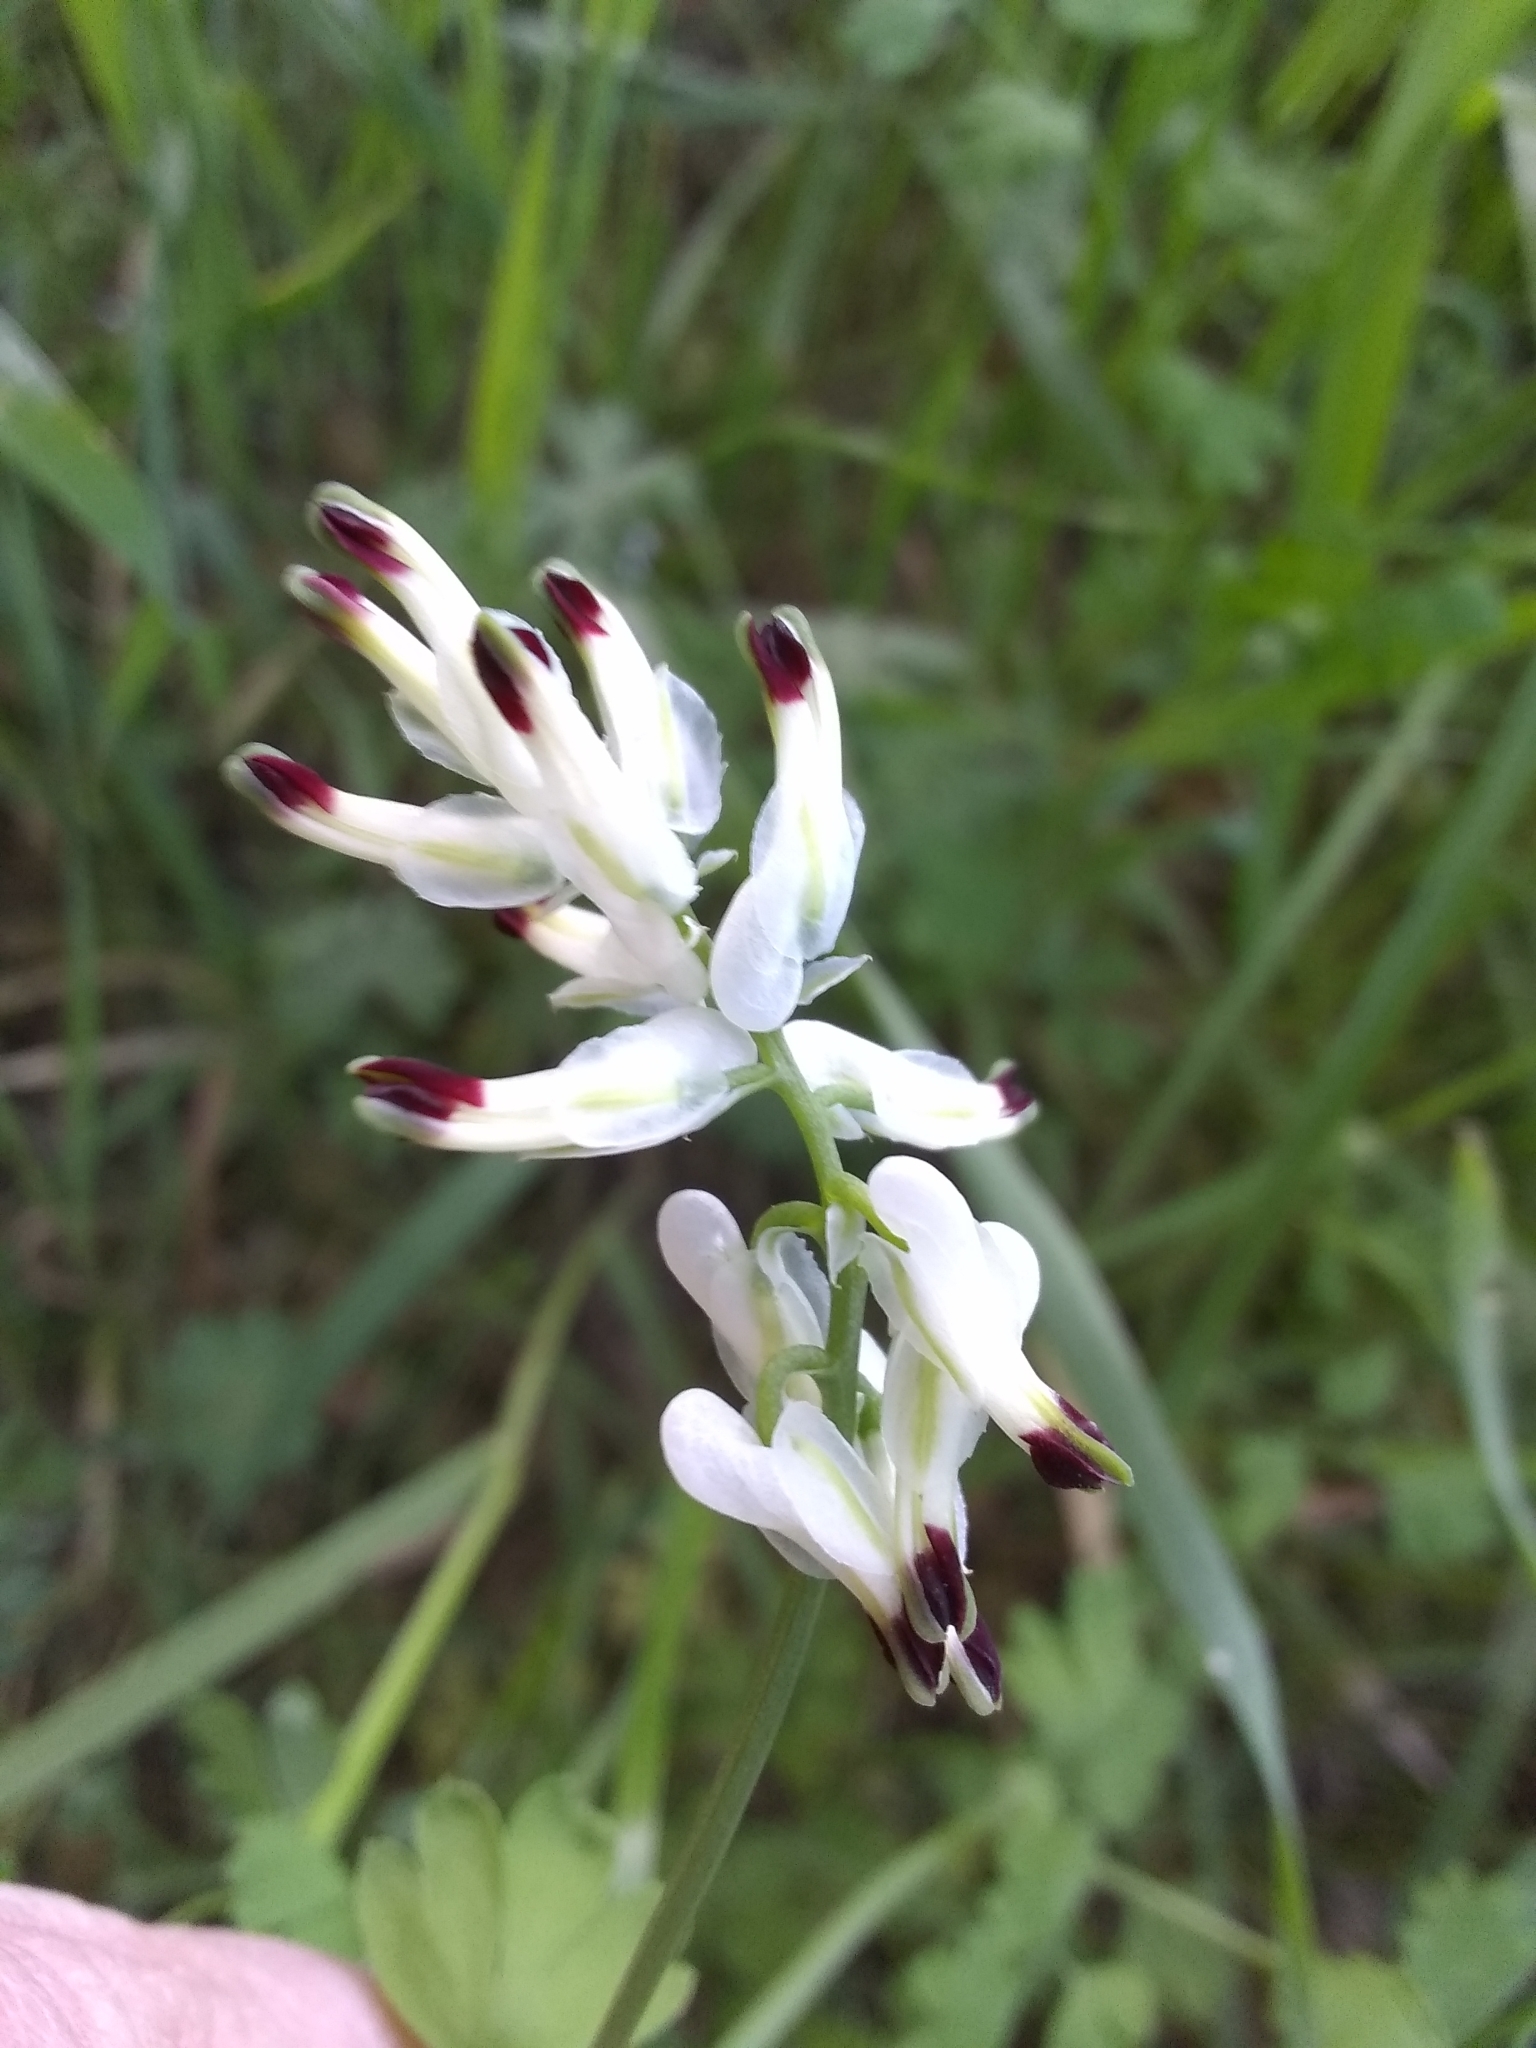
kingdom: Plantae
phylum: Tracheophyta
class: Magnoliopsida
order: Ranunculales
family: Papaveraceae
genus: Fumaria
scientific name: Fumaria capreolata
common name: White ramping-fumitory
